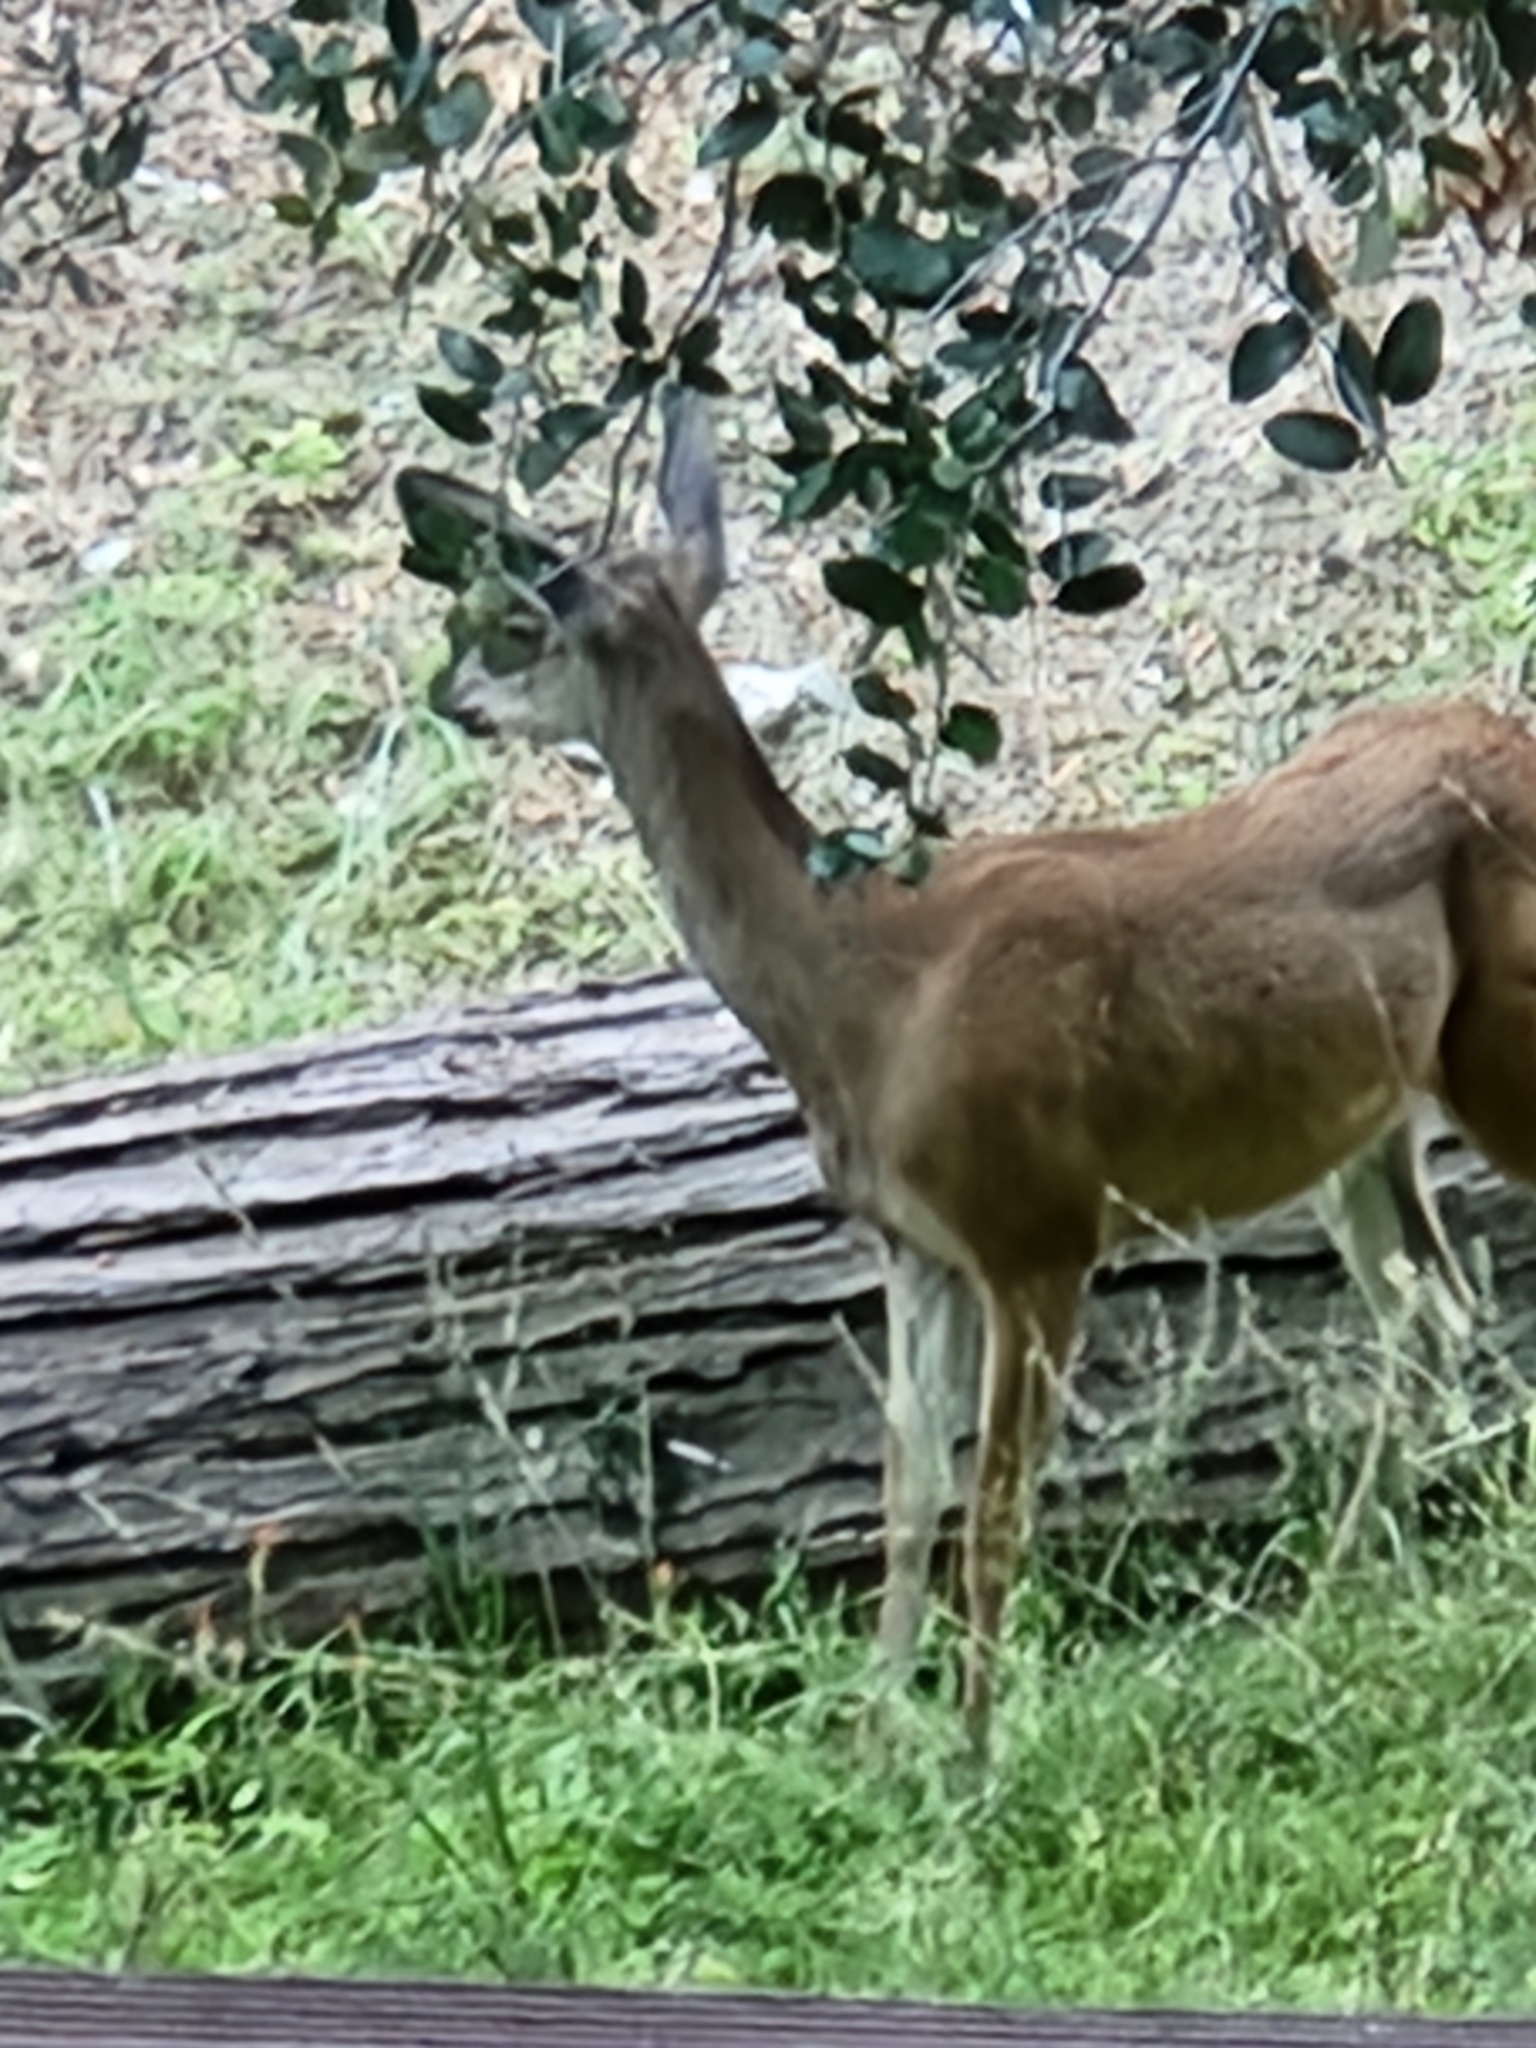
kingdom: Animalia
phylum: Chordata
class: Mammalia
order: Artiodactyla
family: Cervidae
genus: Odocoileus
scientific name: Odocoileus hemionus
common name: Mule deer
